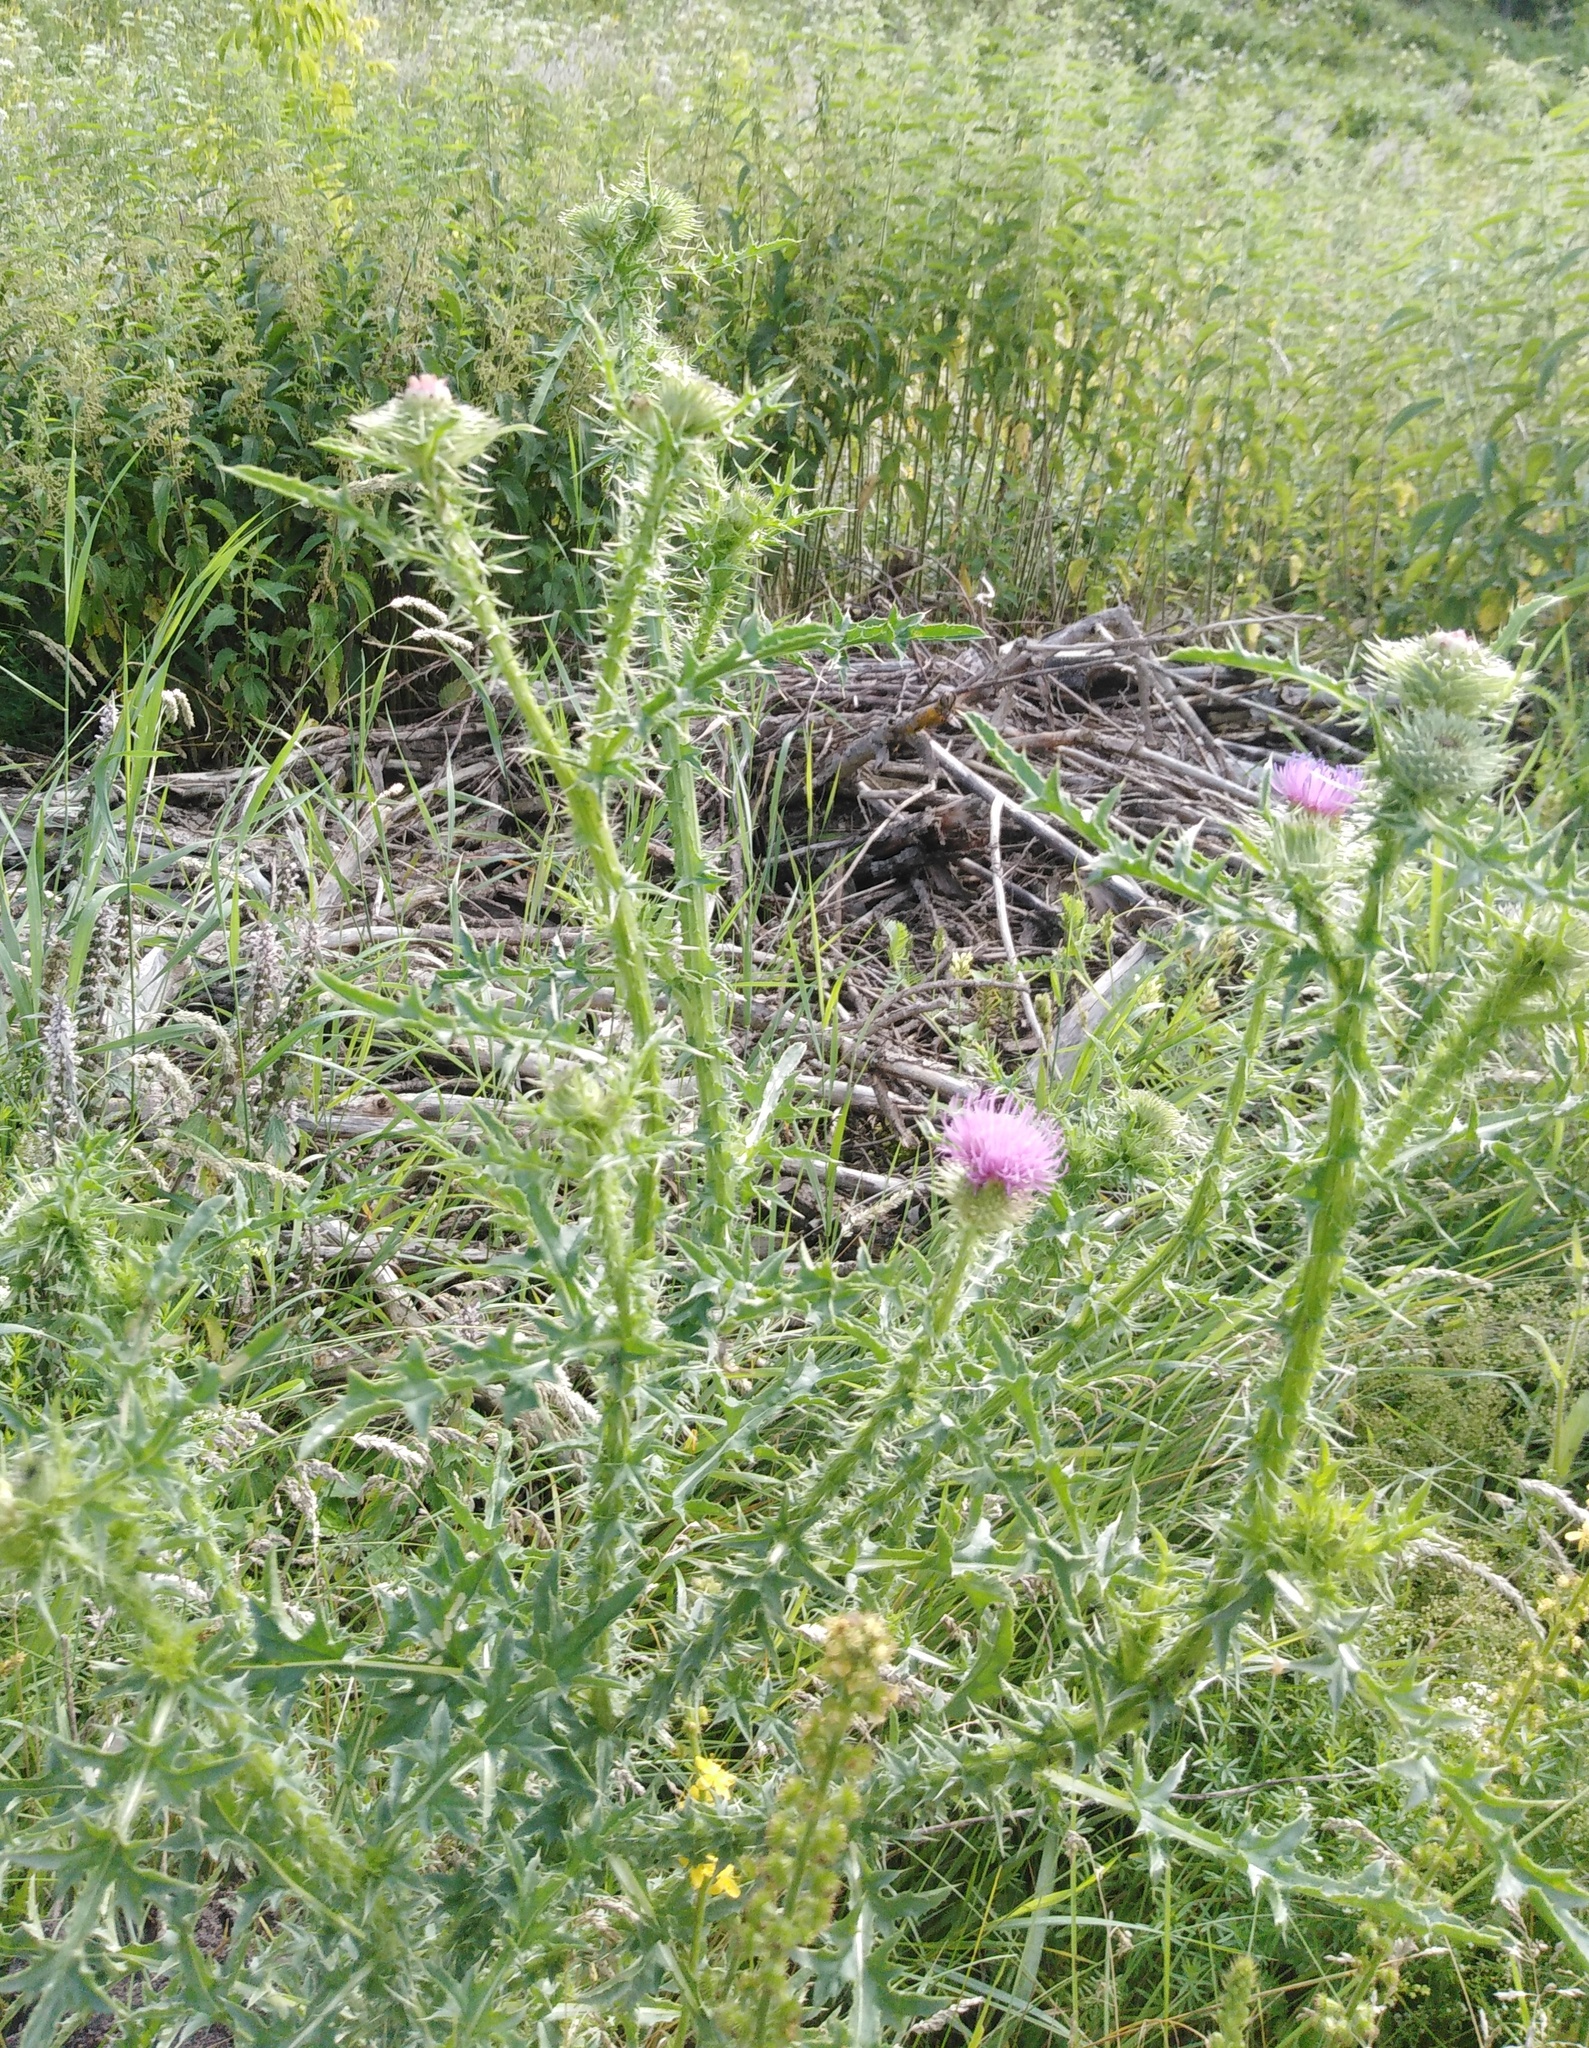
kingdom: Plantae
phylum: Tracheophyta
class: Magnoliopsida
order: Asterales
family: Asteraceae
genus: Carduus
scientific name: Carduus acanthoides
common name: Plumeless thistle
